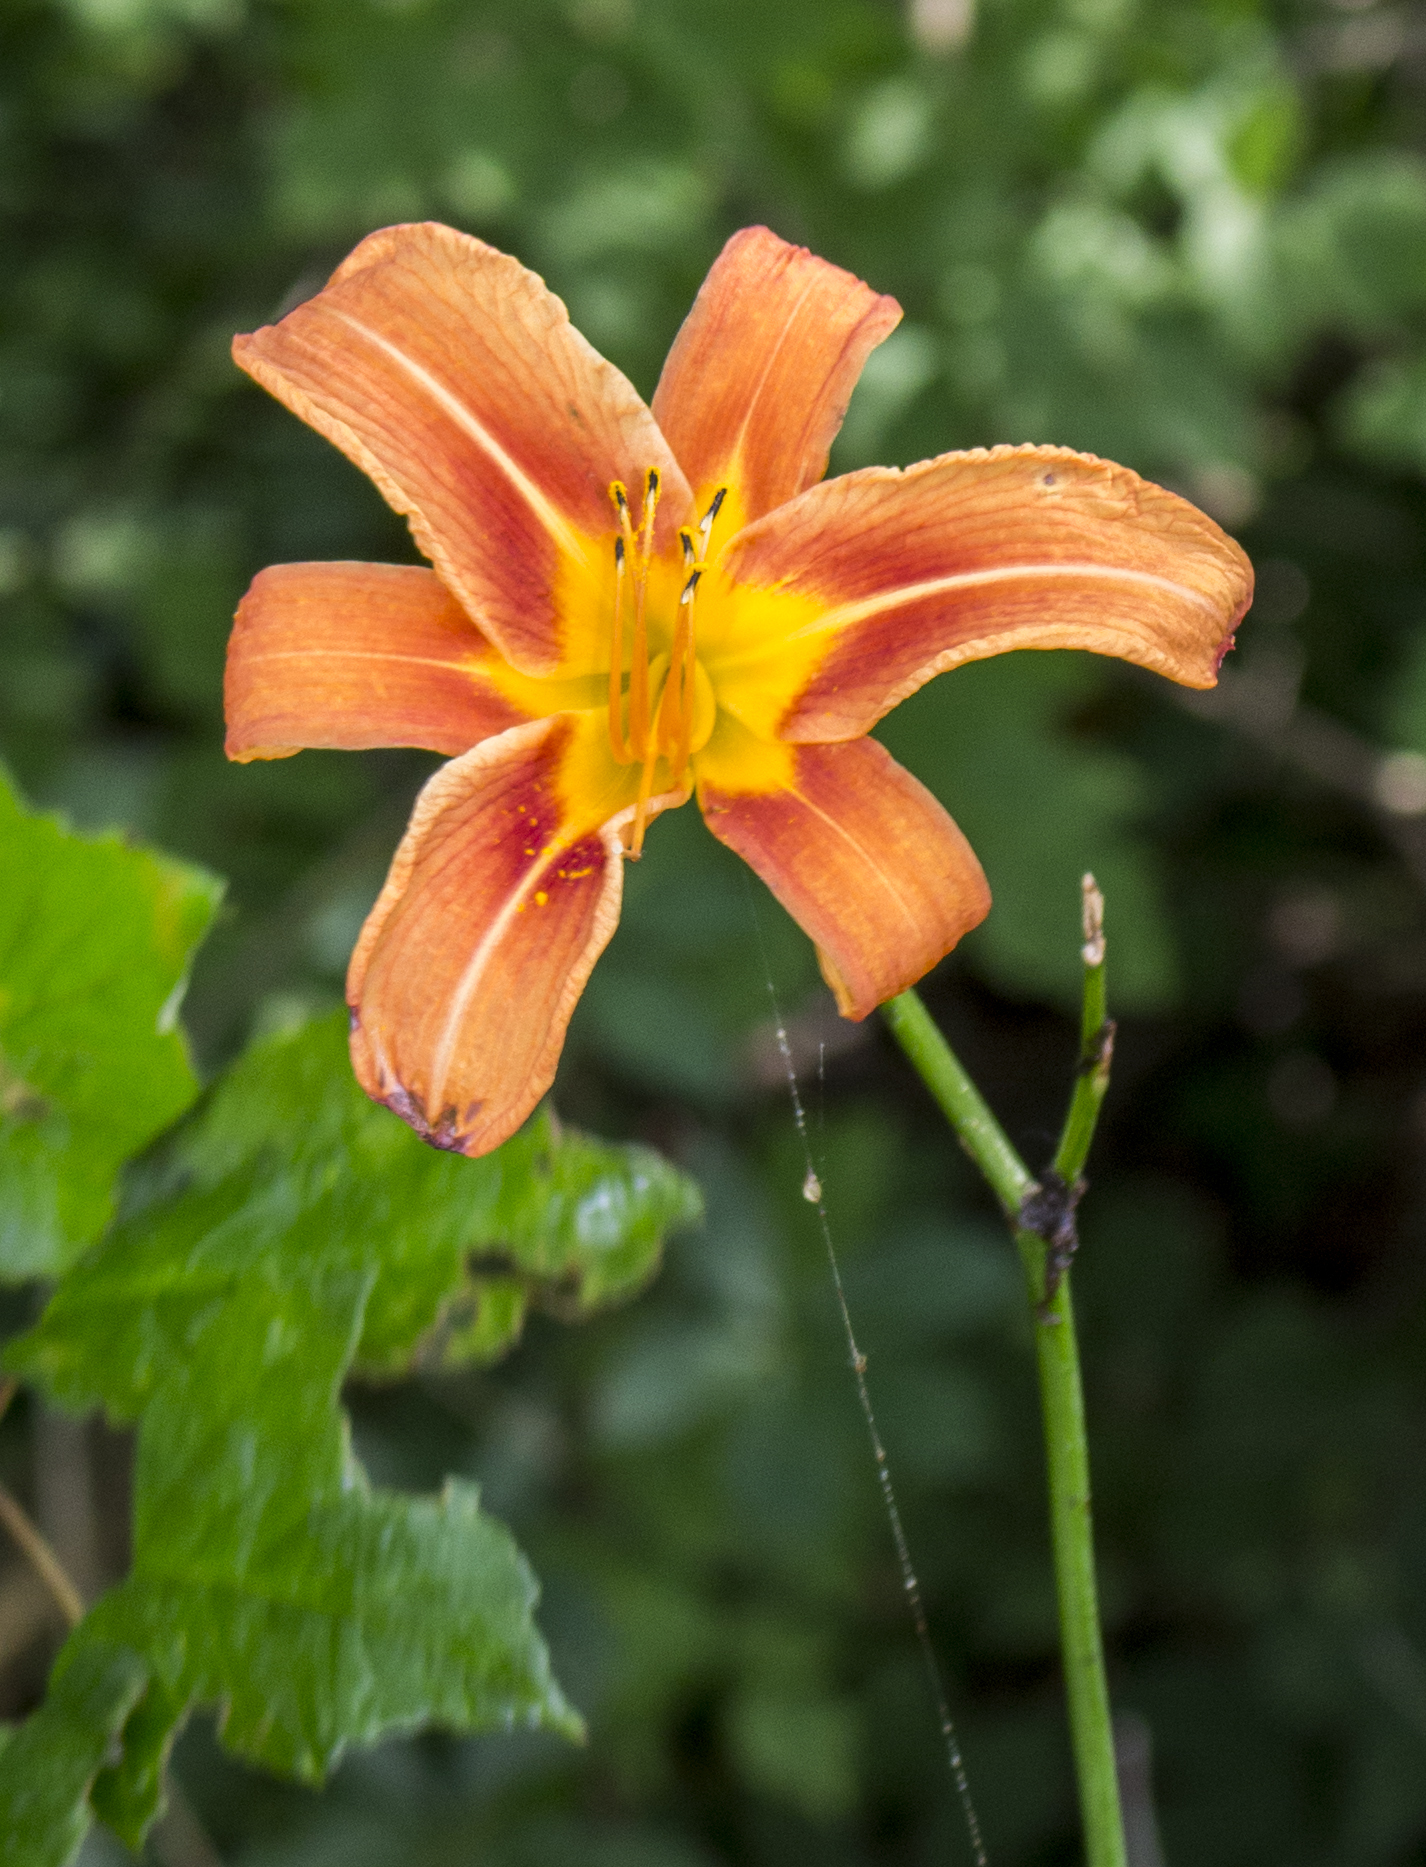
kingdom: Plantae
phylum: Tracheophyta
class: Liliopsida
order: Asparagales
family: Asphodelaceae
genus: Hemerocallis
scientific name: Hemerocallis fulva
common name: Orange day-lily
